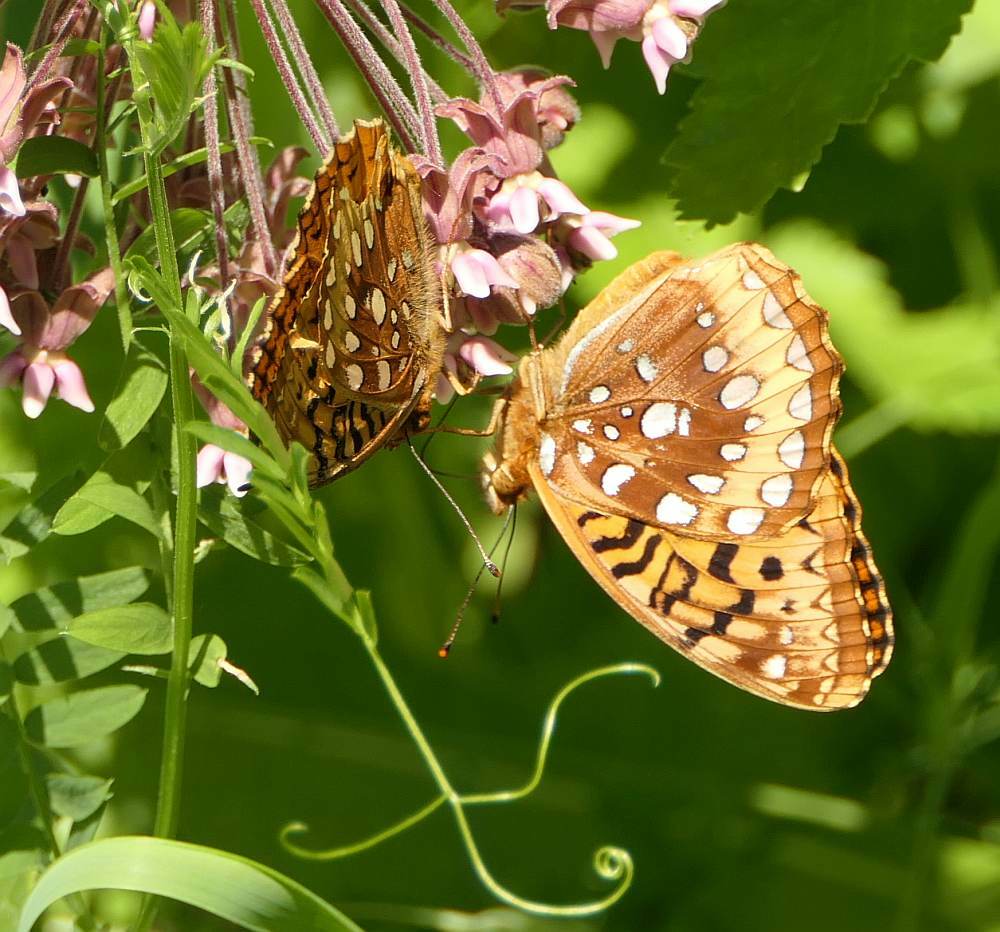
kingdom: Animalia
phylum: Arthropoda
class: Insecta
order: Lepidoptera
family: Nymphalidae
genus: Speyeria
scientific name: Speyeria cybele
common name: Great spangled fritillary
